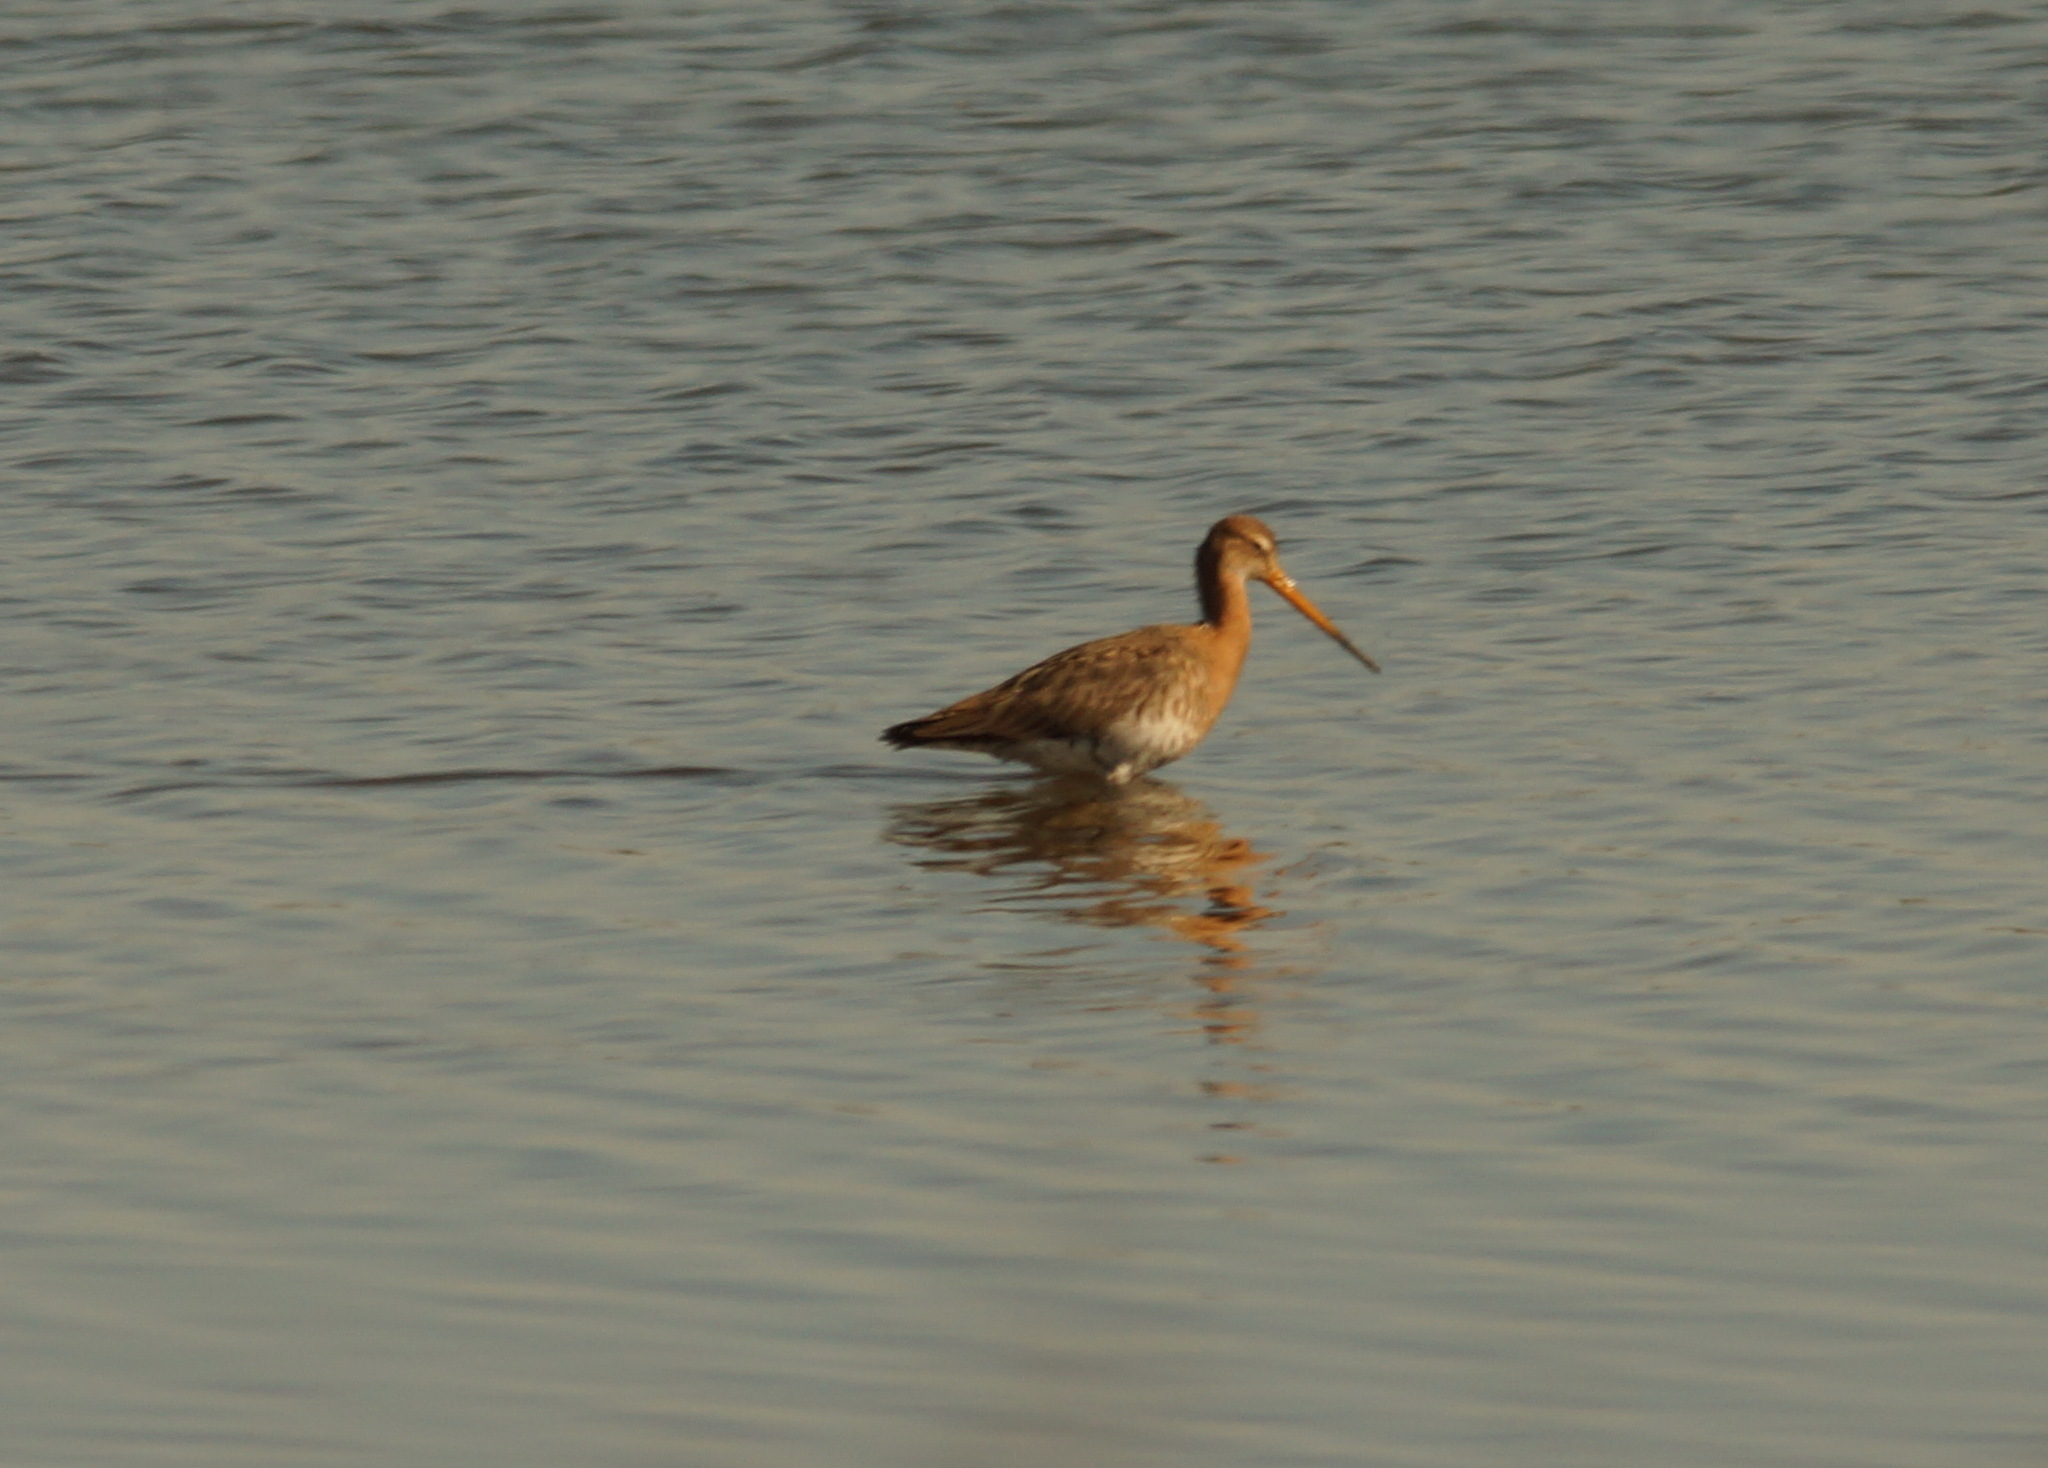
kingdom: Animalia
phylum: Chordata
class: Aves
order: Charadriiformes
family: Scolopacidae
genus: Limosa
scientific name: Limosa limosa
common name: Black-tailed godwit
